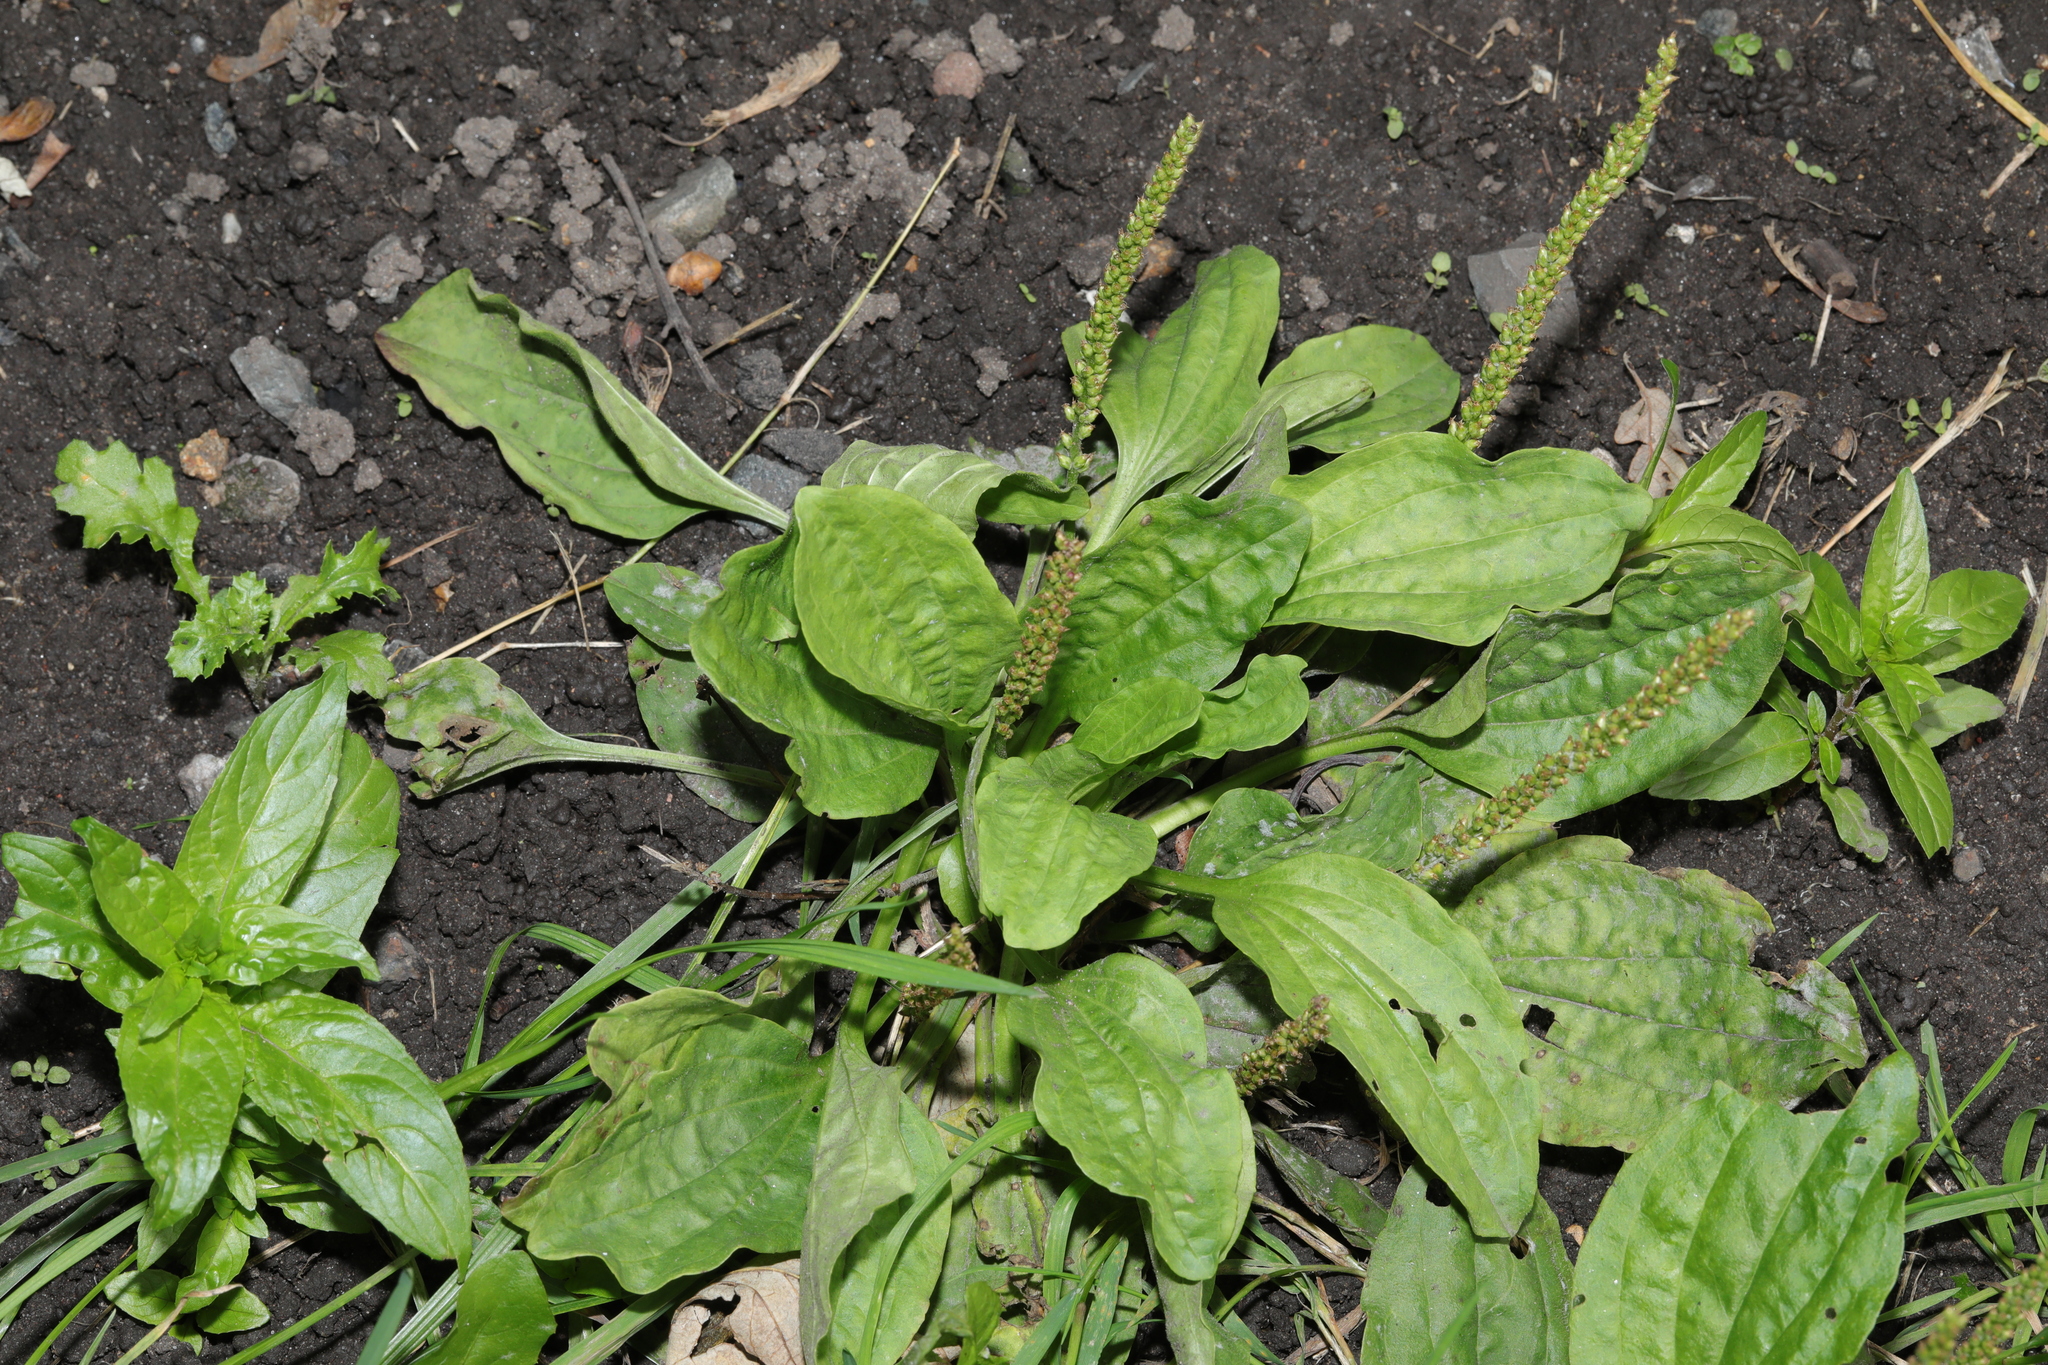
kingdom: Plantae
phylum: Tracheophyta
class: Magnoliopsida
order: Lamiales
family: Plantaginaceae
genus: Plantago
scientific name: Plantago major
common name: Common plantain
